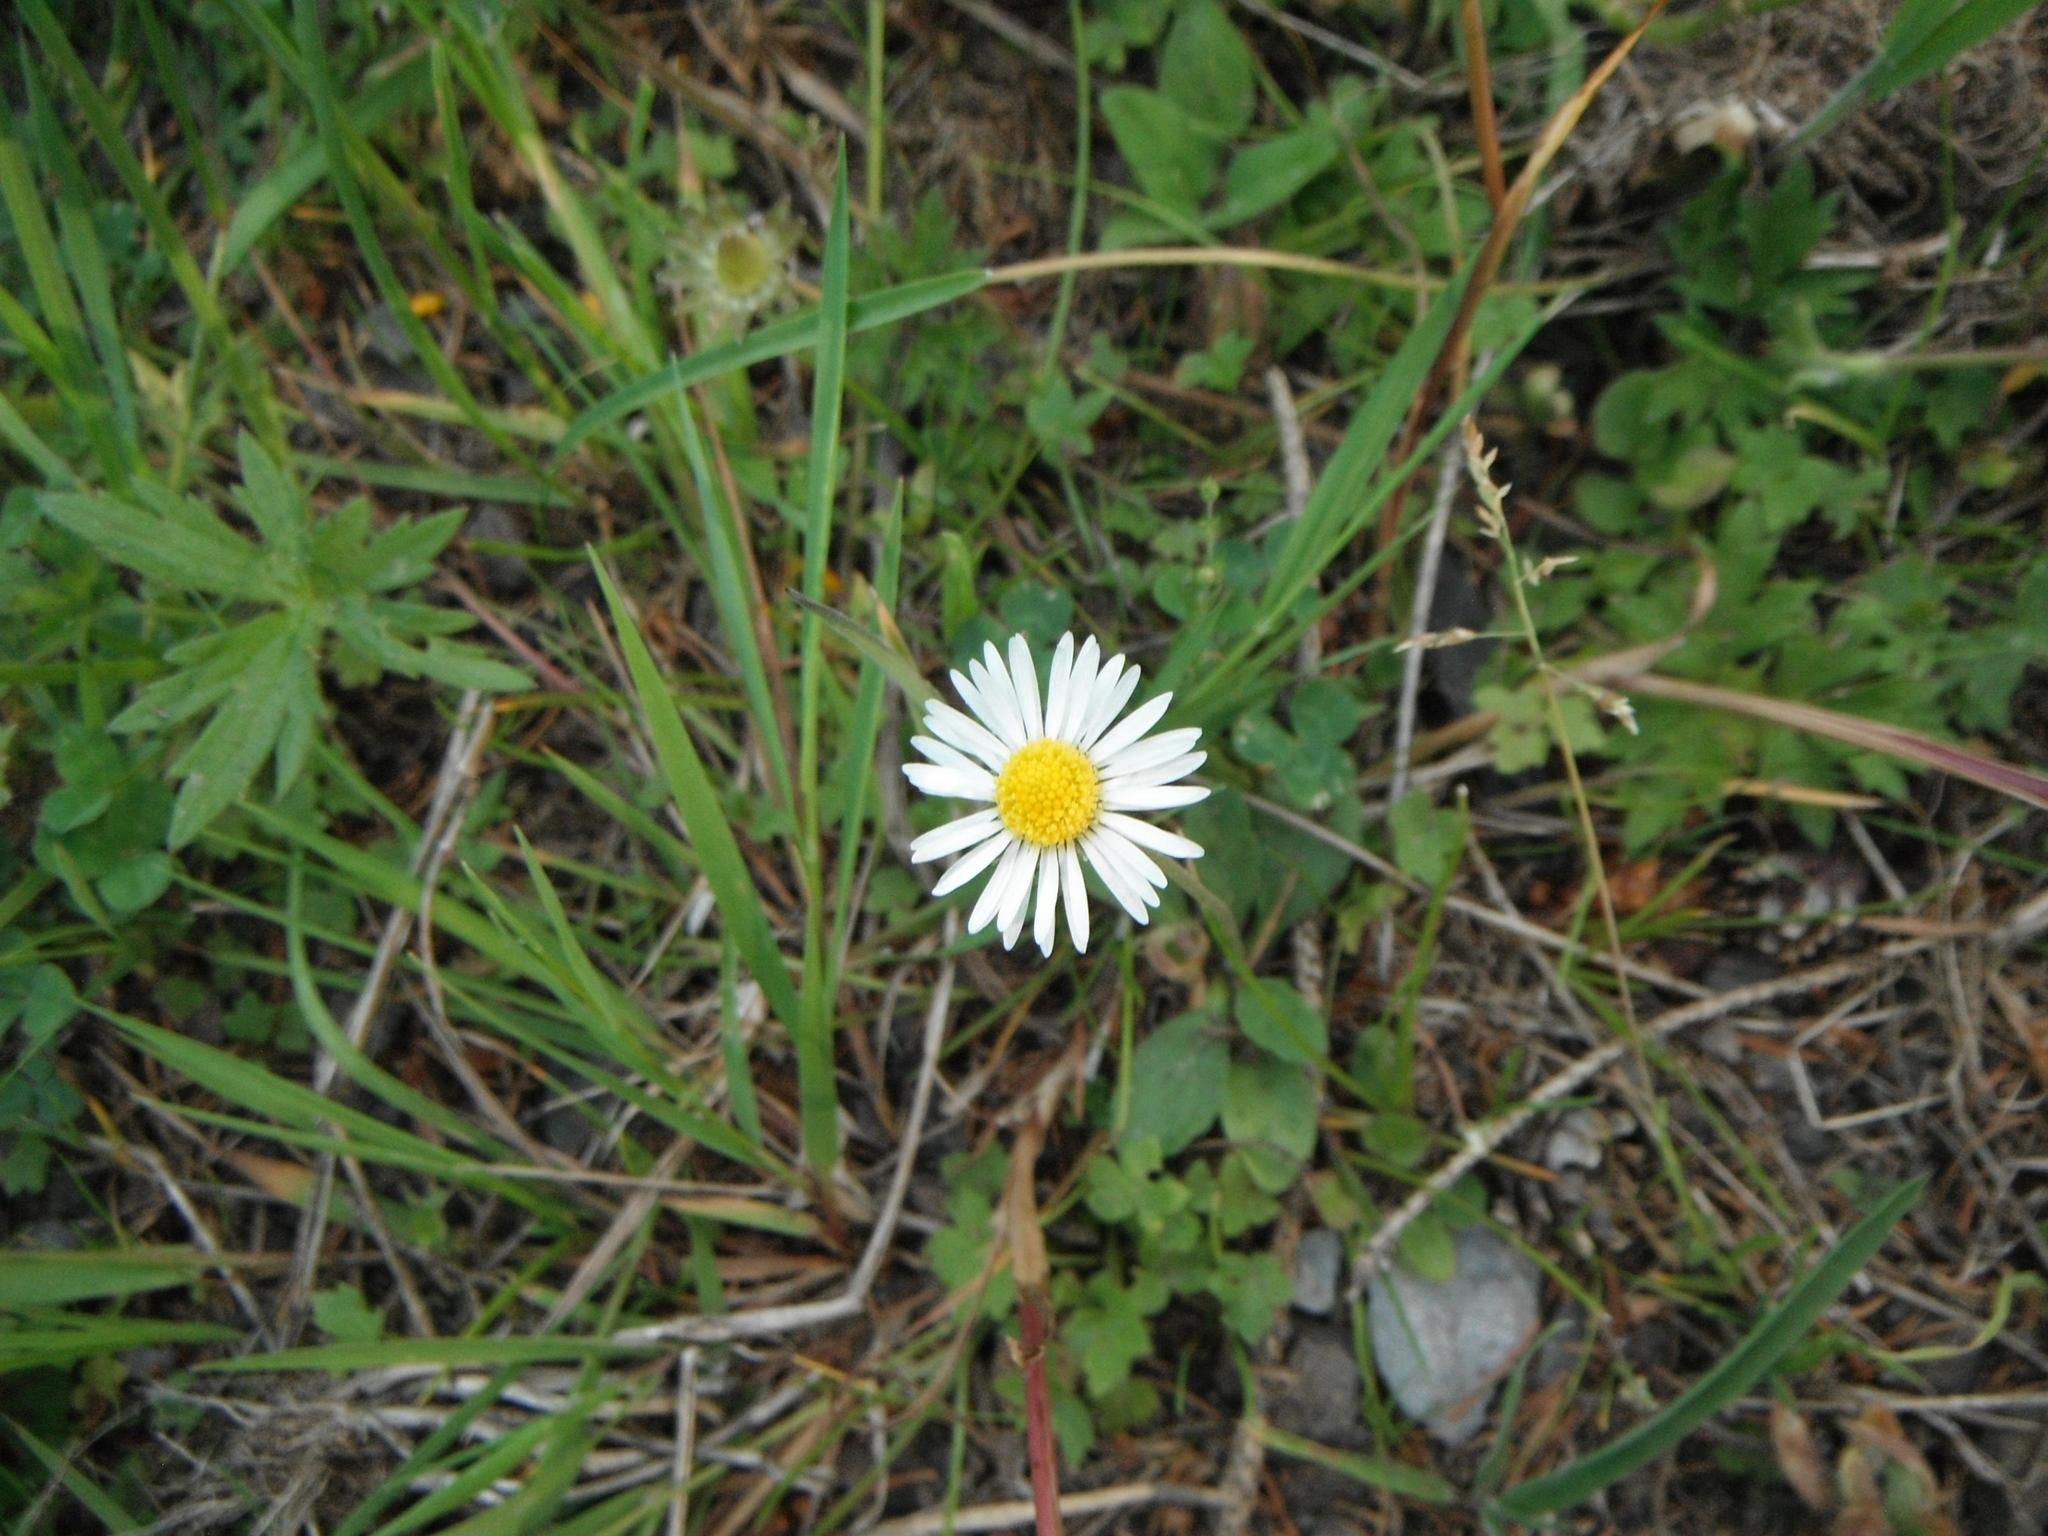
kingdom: Plantae
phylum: Tracheophyta
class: Magnoliopsida
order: Asterales
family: Asteraceae
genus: Bellis
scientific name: Bellis perennis
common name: Lawndaisy
